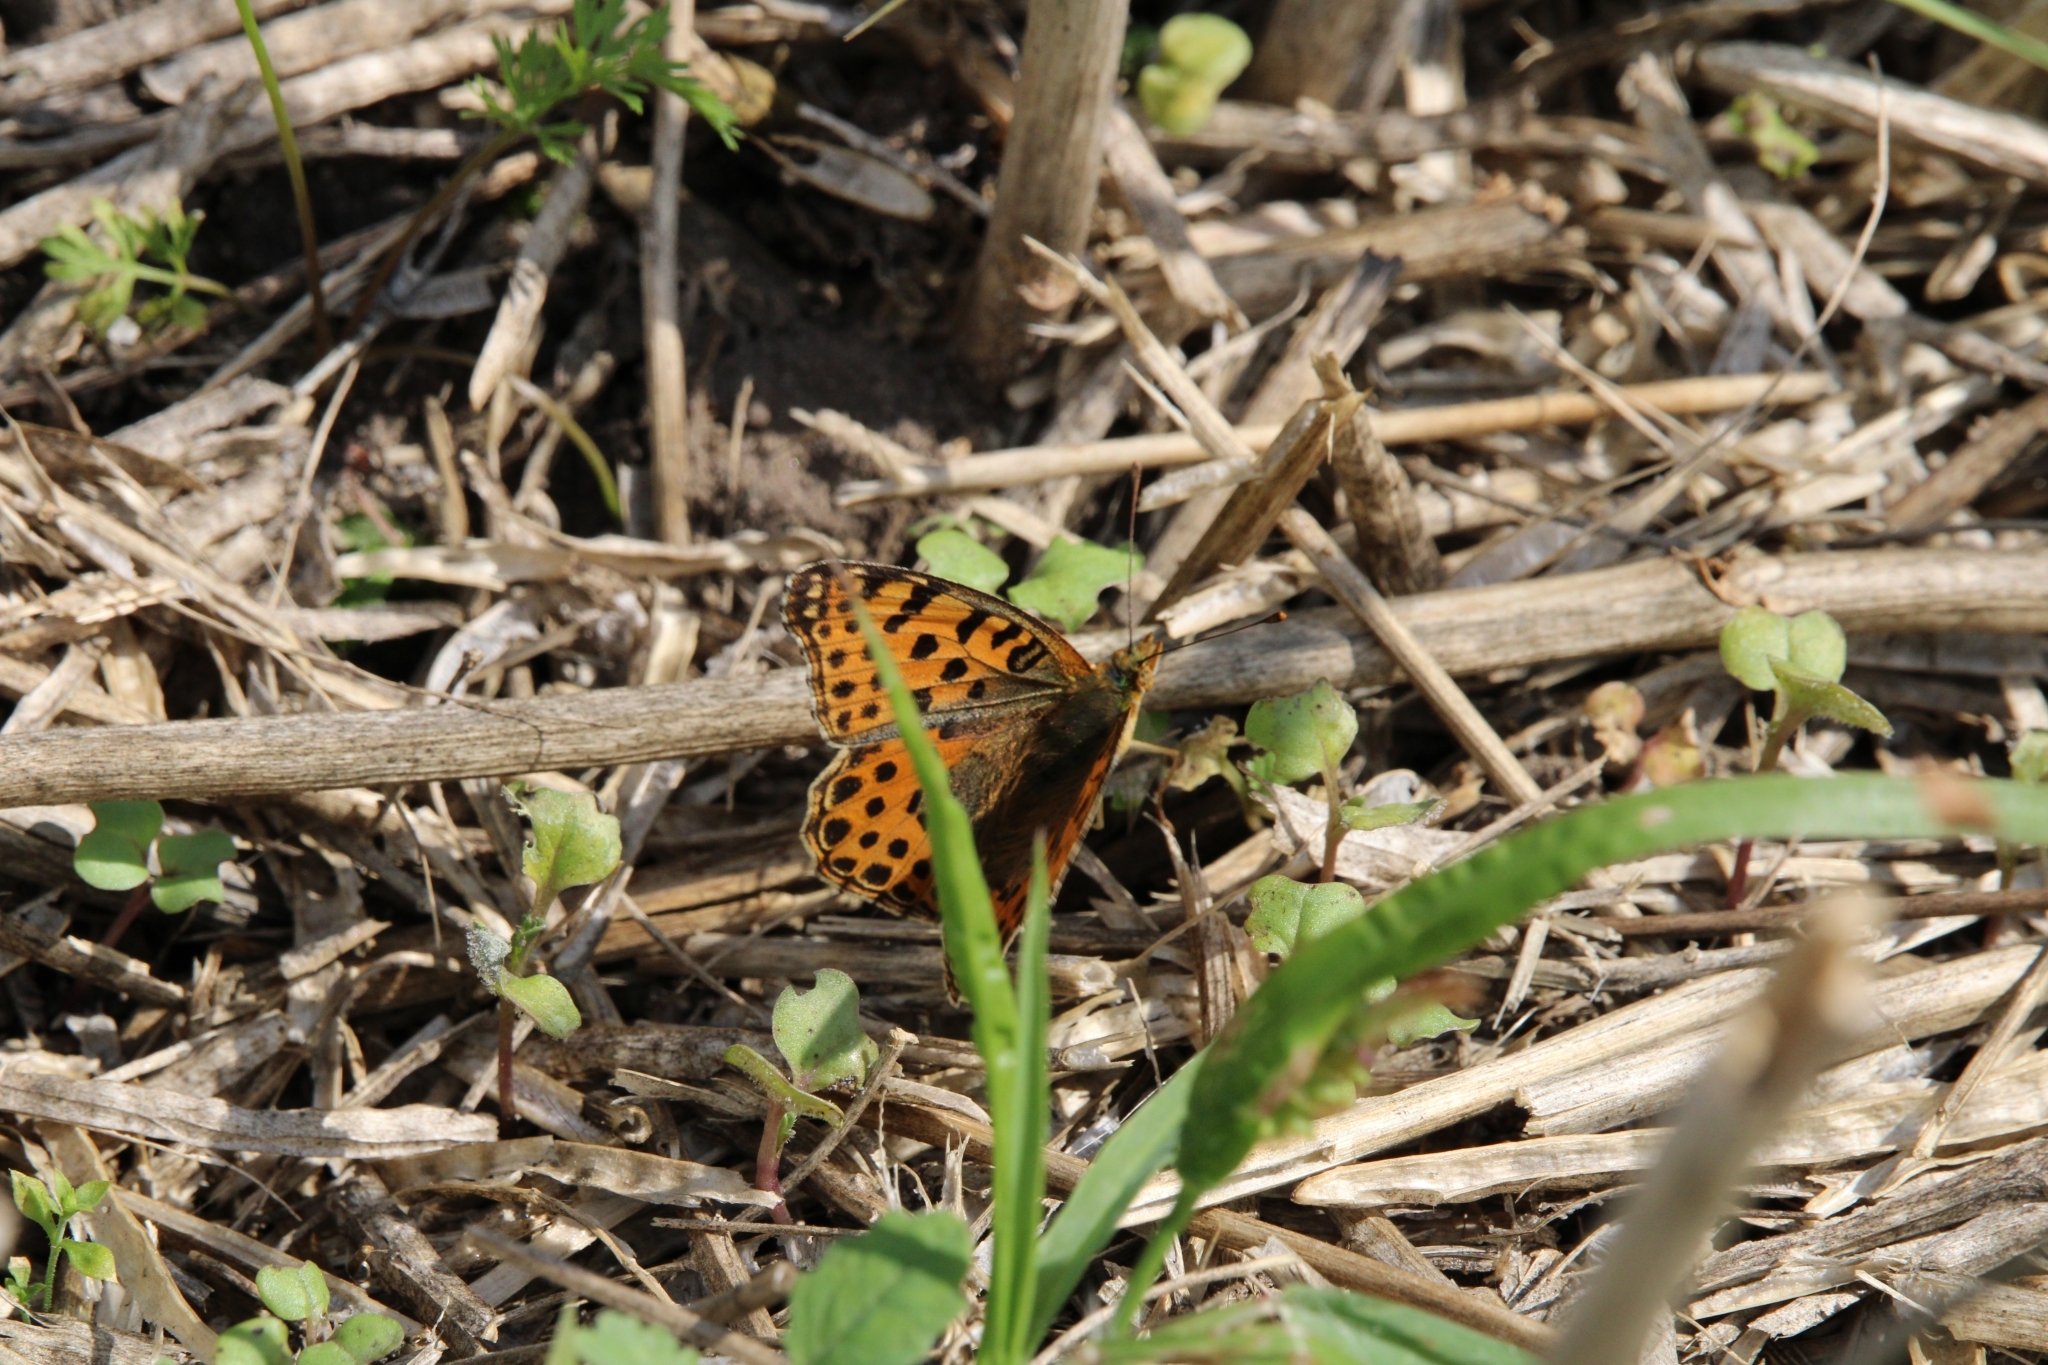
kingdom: Animalia
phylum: Arthropoda
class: Insecta
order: Lepidoptera
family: Nymphalidae
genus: Issoria
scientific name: Issoria lathonia
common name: Queen of spain fritillary
